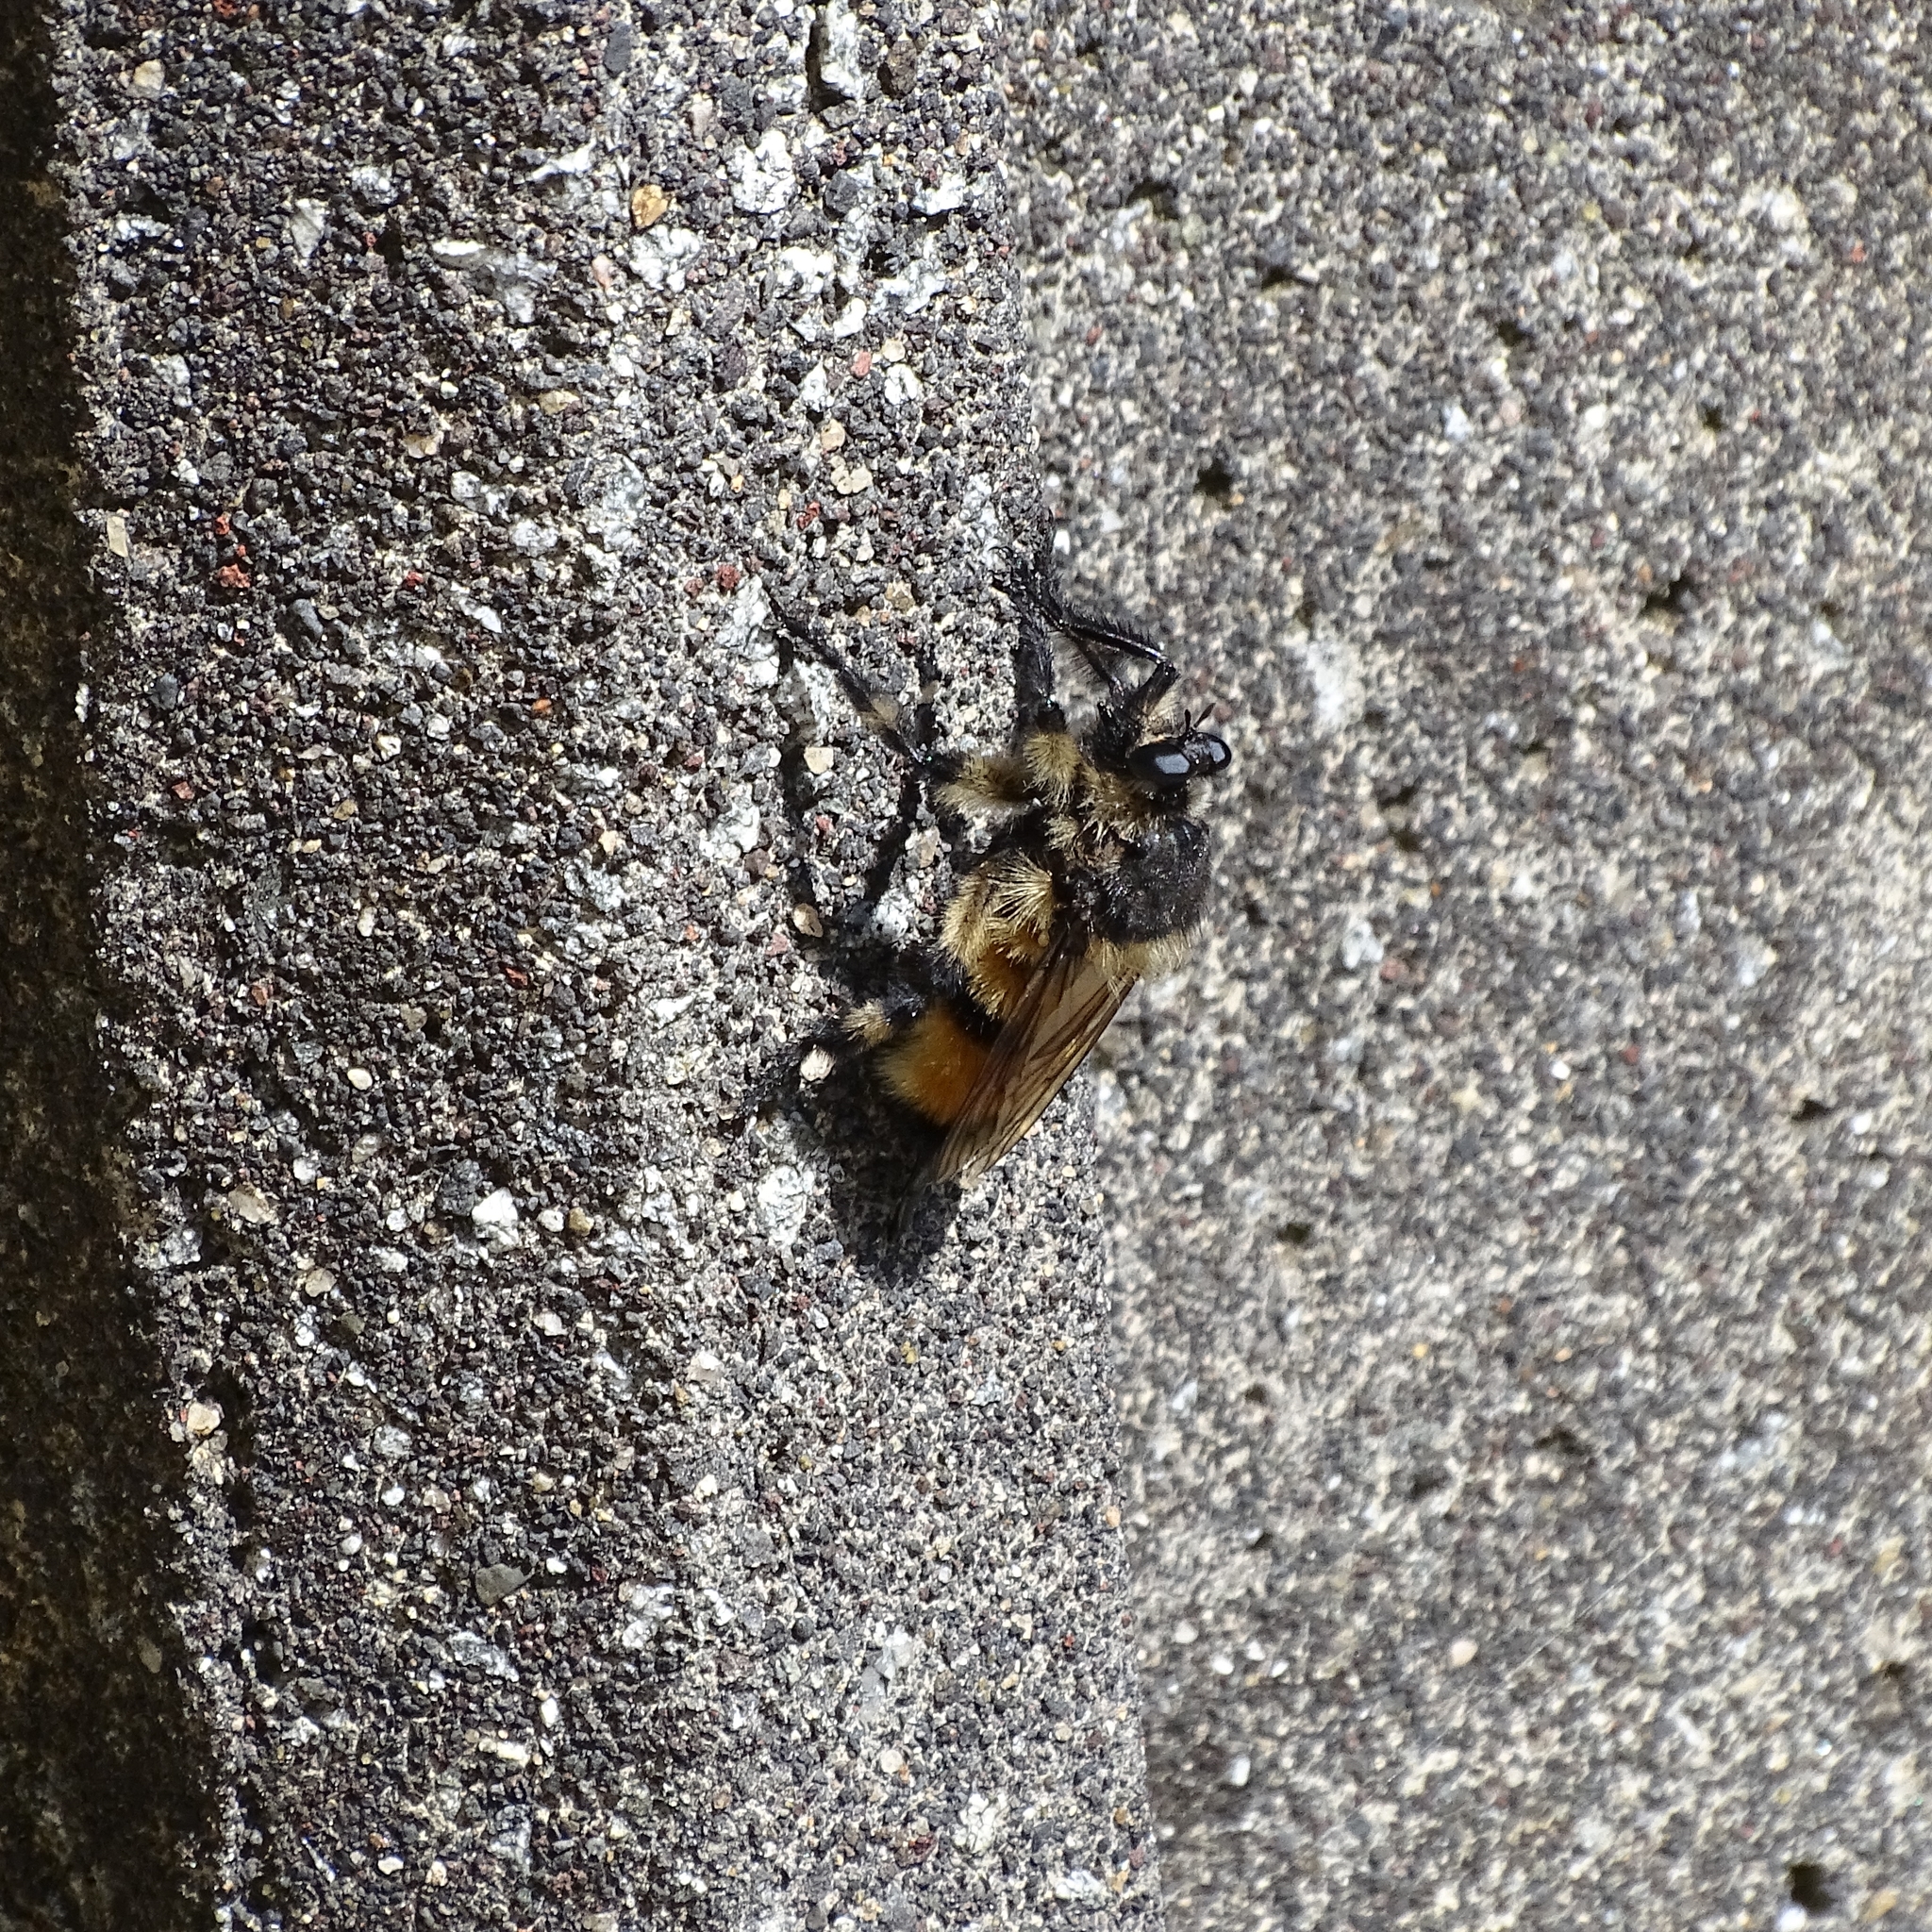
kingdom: Animalia
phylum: Arthropoda
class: Insecta
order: Diptera
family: Asilidae
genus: Obelophorus
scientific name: Obelophorus terebratus
